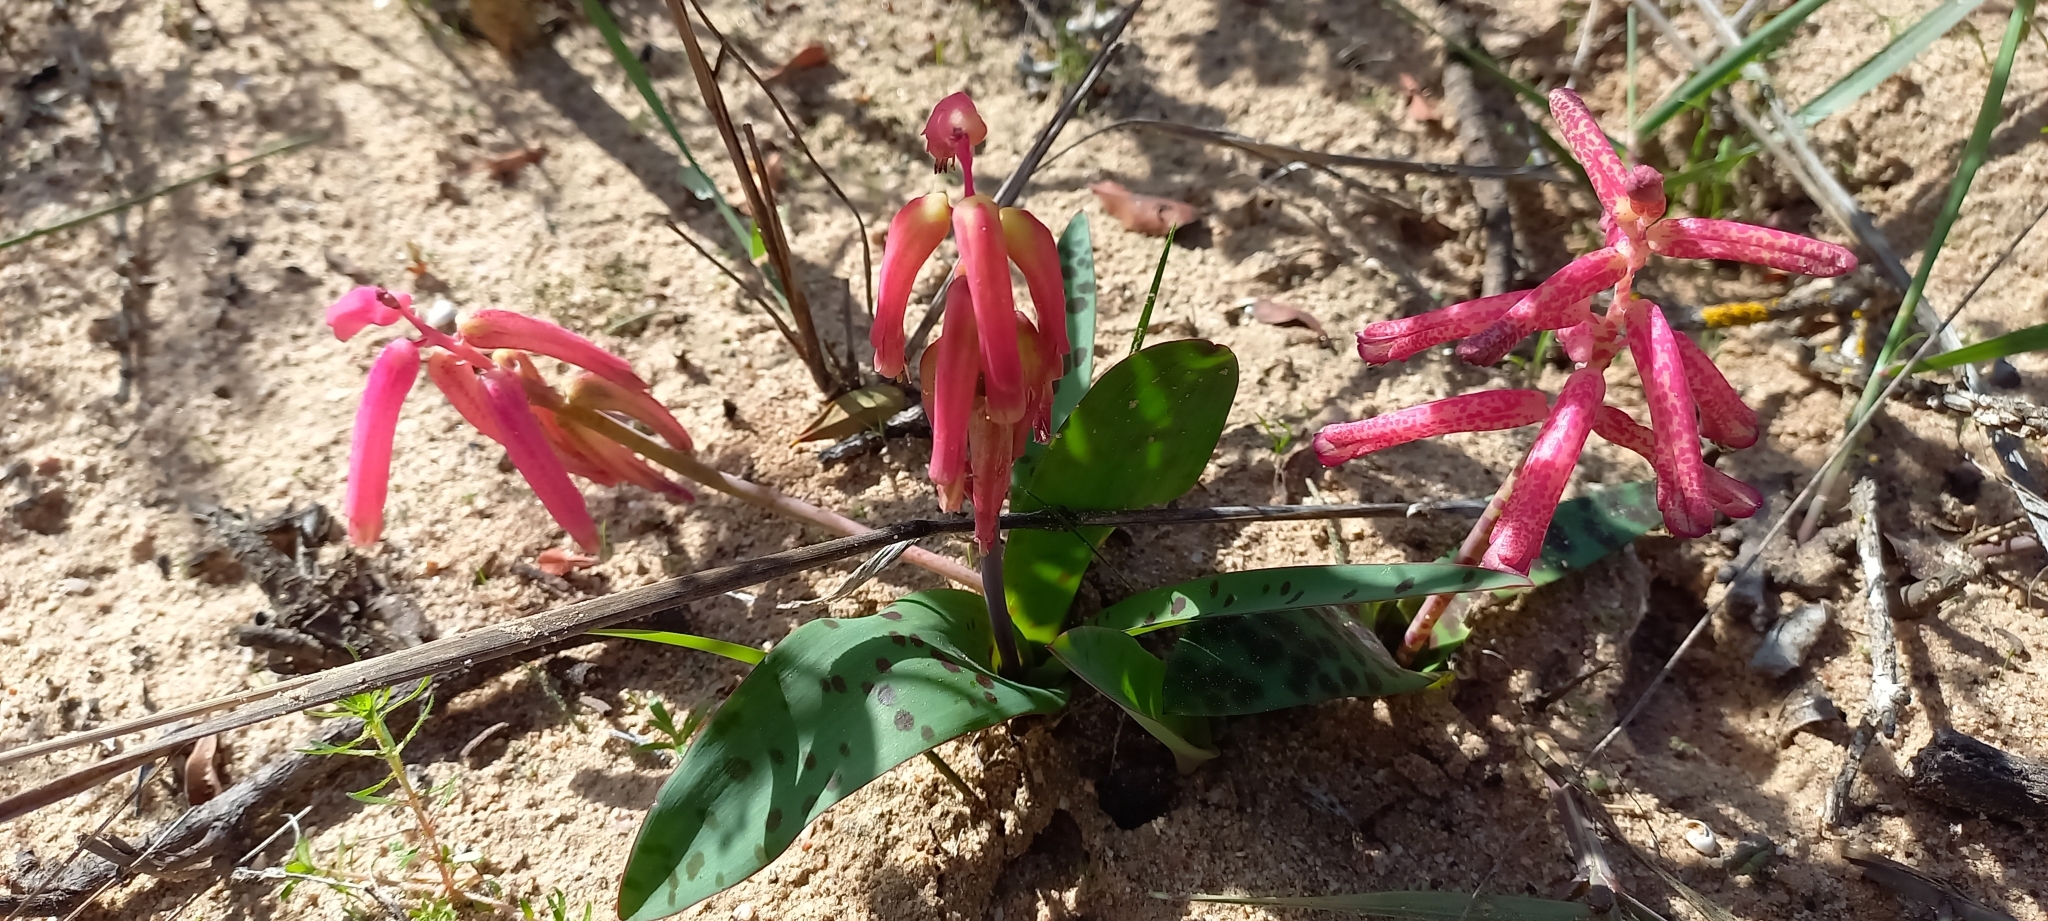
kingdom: Plantae
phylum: Tracheophyta
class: Liliopsida
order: Asparagales
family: Asparagaceae
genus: Lachenalia
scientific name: Lachenalia punctata
